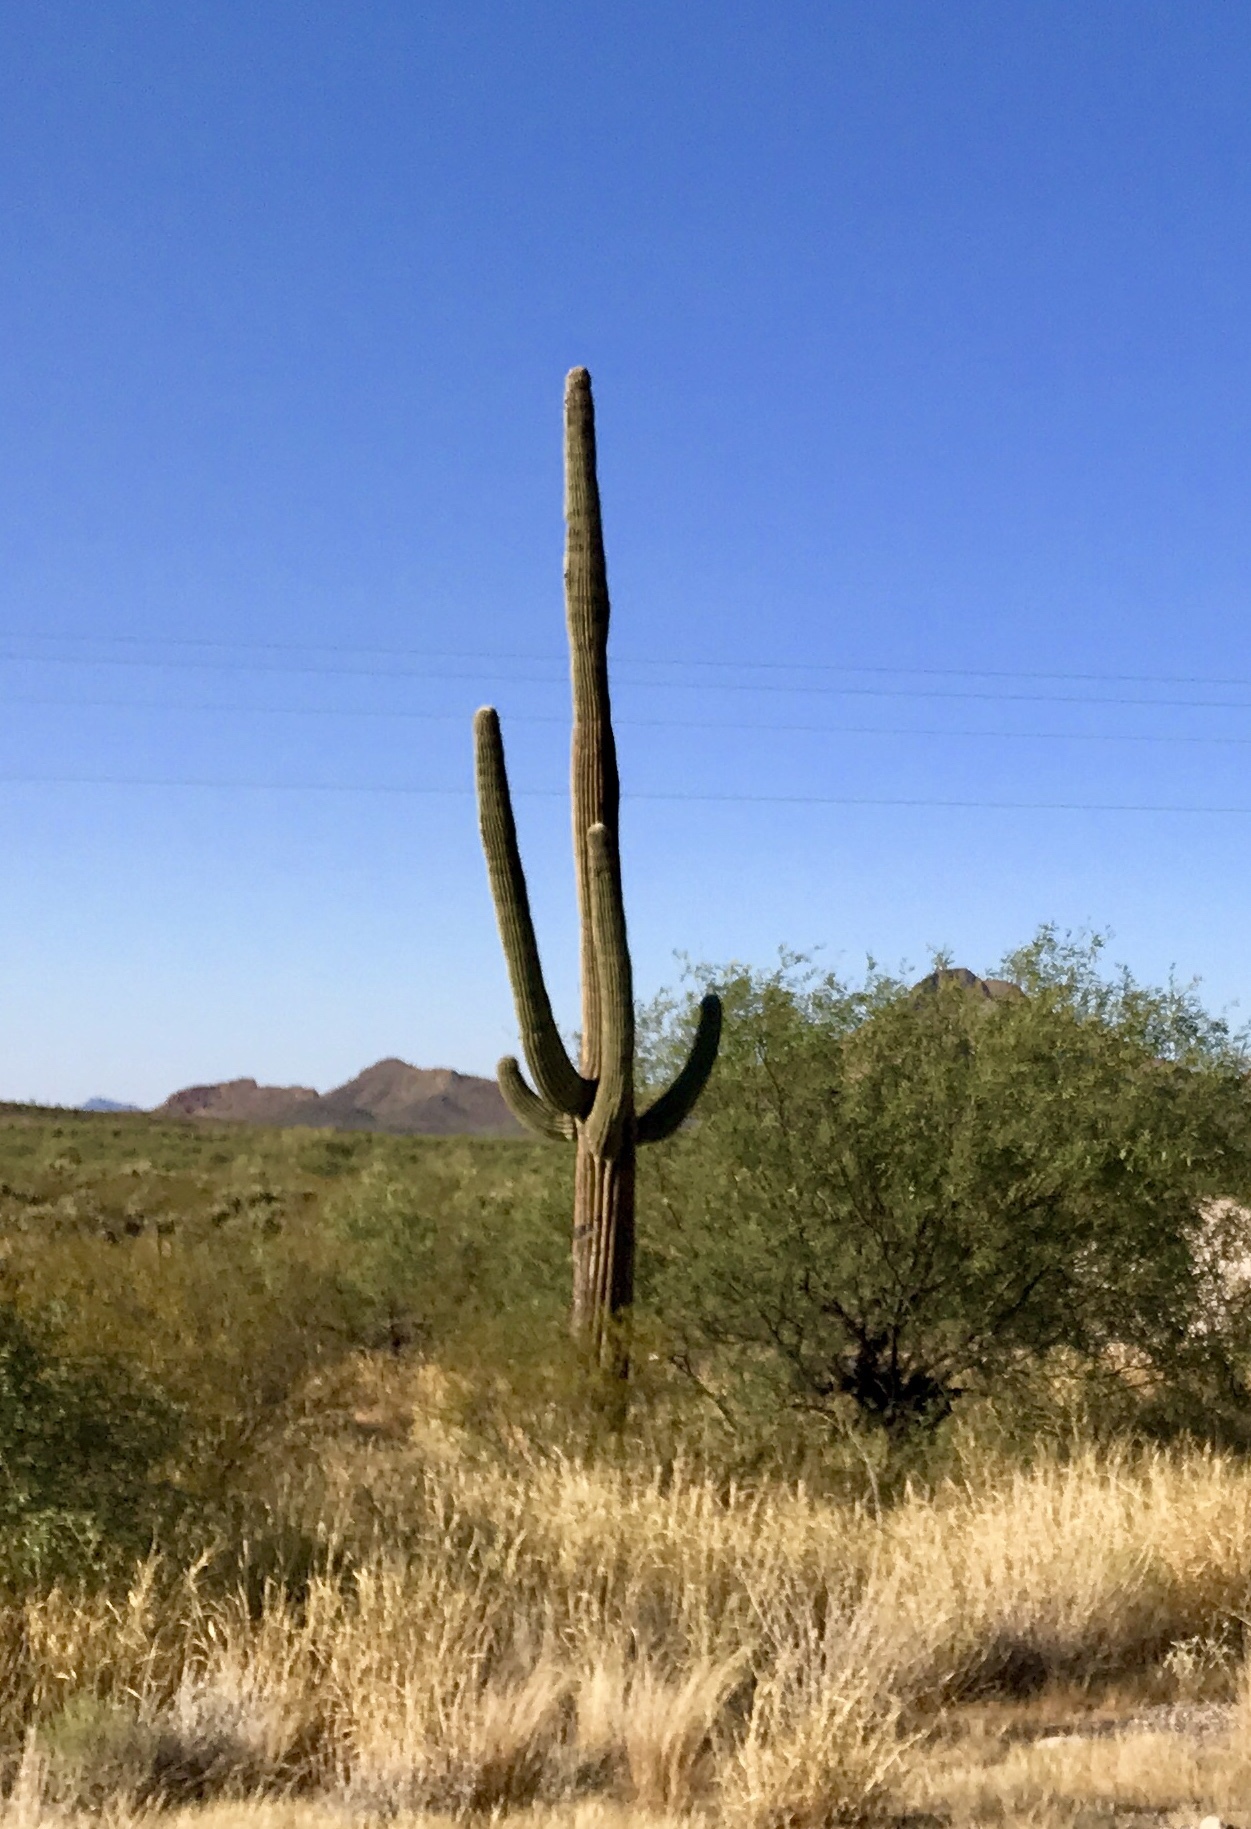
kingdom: Plantae
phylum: Tracheophyta
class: Magnoliopsida
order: Caryophyllales
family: Cactaceae
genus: Carnegiea
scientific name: Carnegiea gigantea
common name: Saguaro
